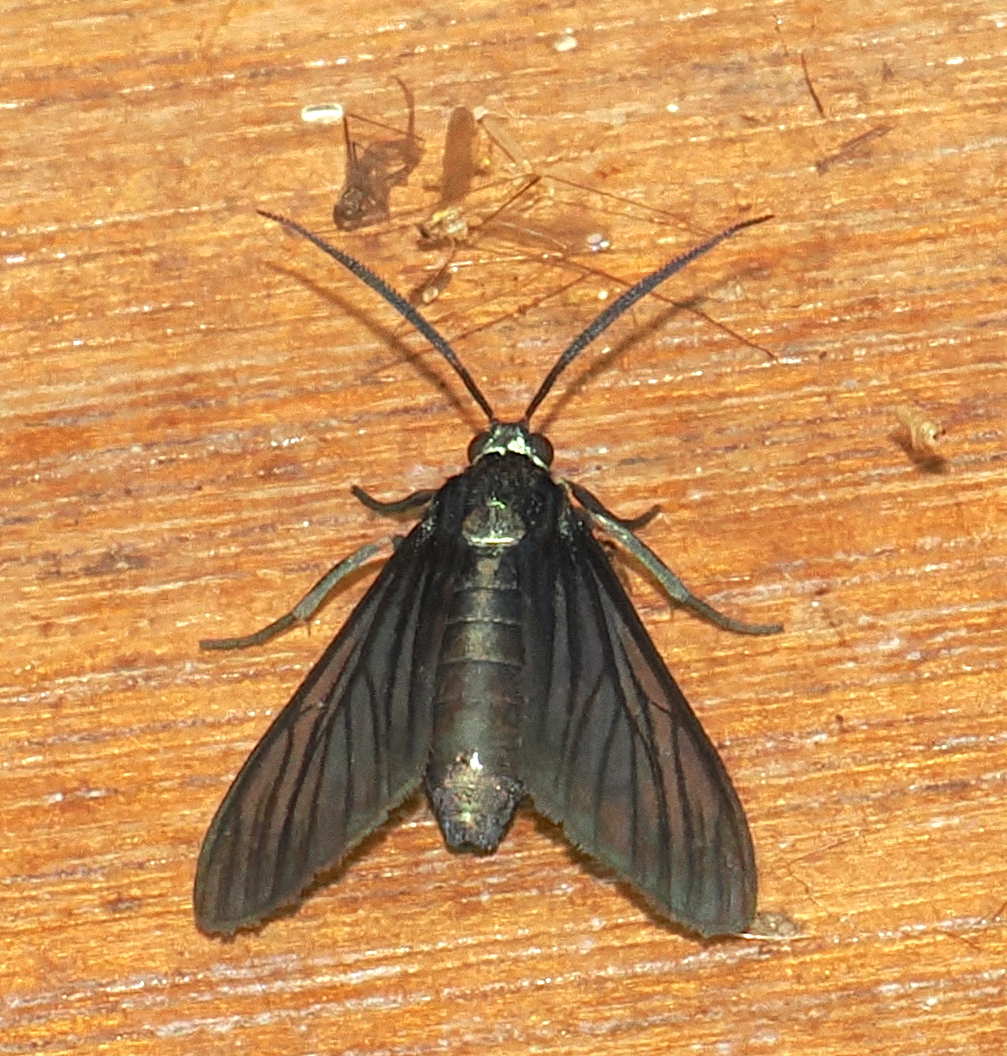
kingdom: Animalia
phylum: Arthropoda
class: Insecta
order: Lepidoptera
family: Erebidae
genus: Saurita
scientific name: Saurita tipulina
